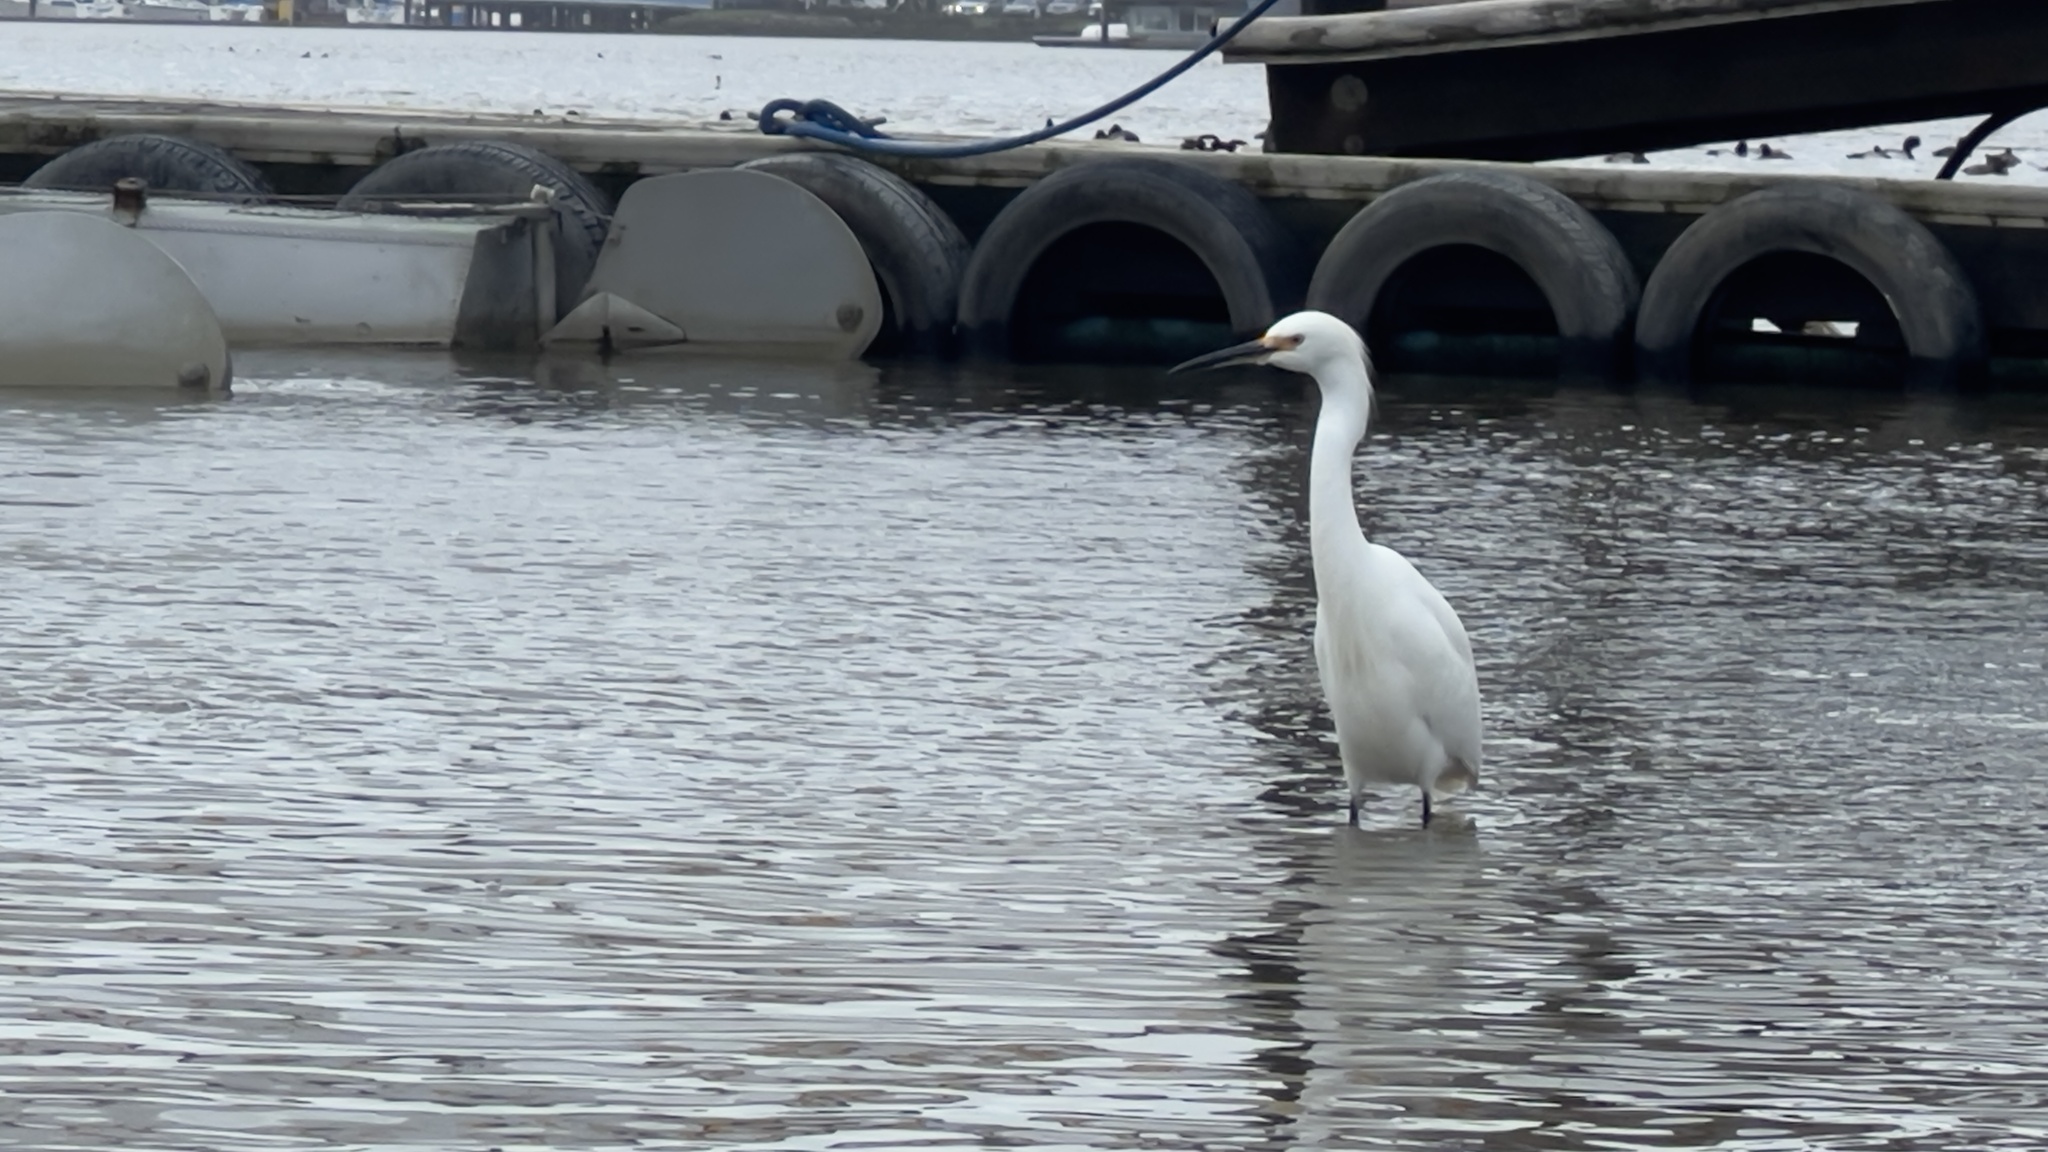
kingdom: Animalia
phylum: Chordata
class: Aves
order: Pelecaniformes
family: Ardeidae
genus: Egretta
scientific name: Egretta thula
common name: Snowy egret
